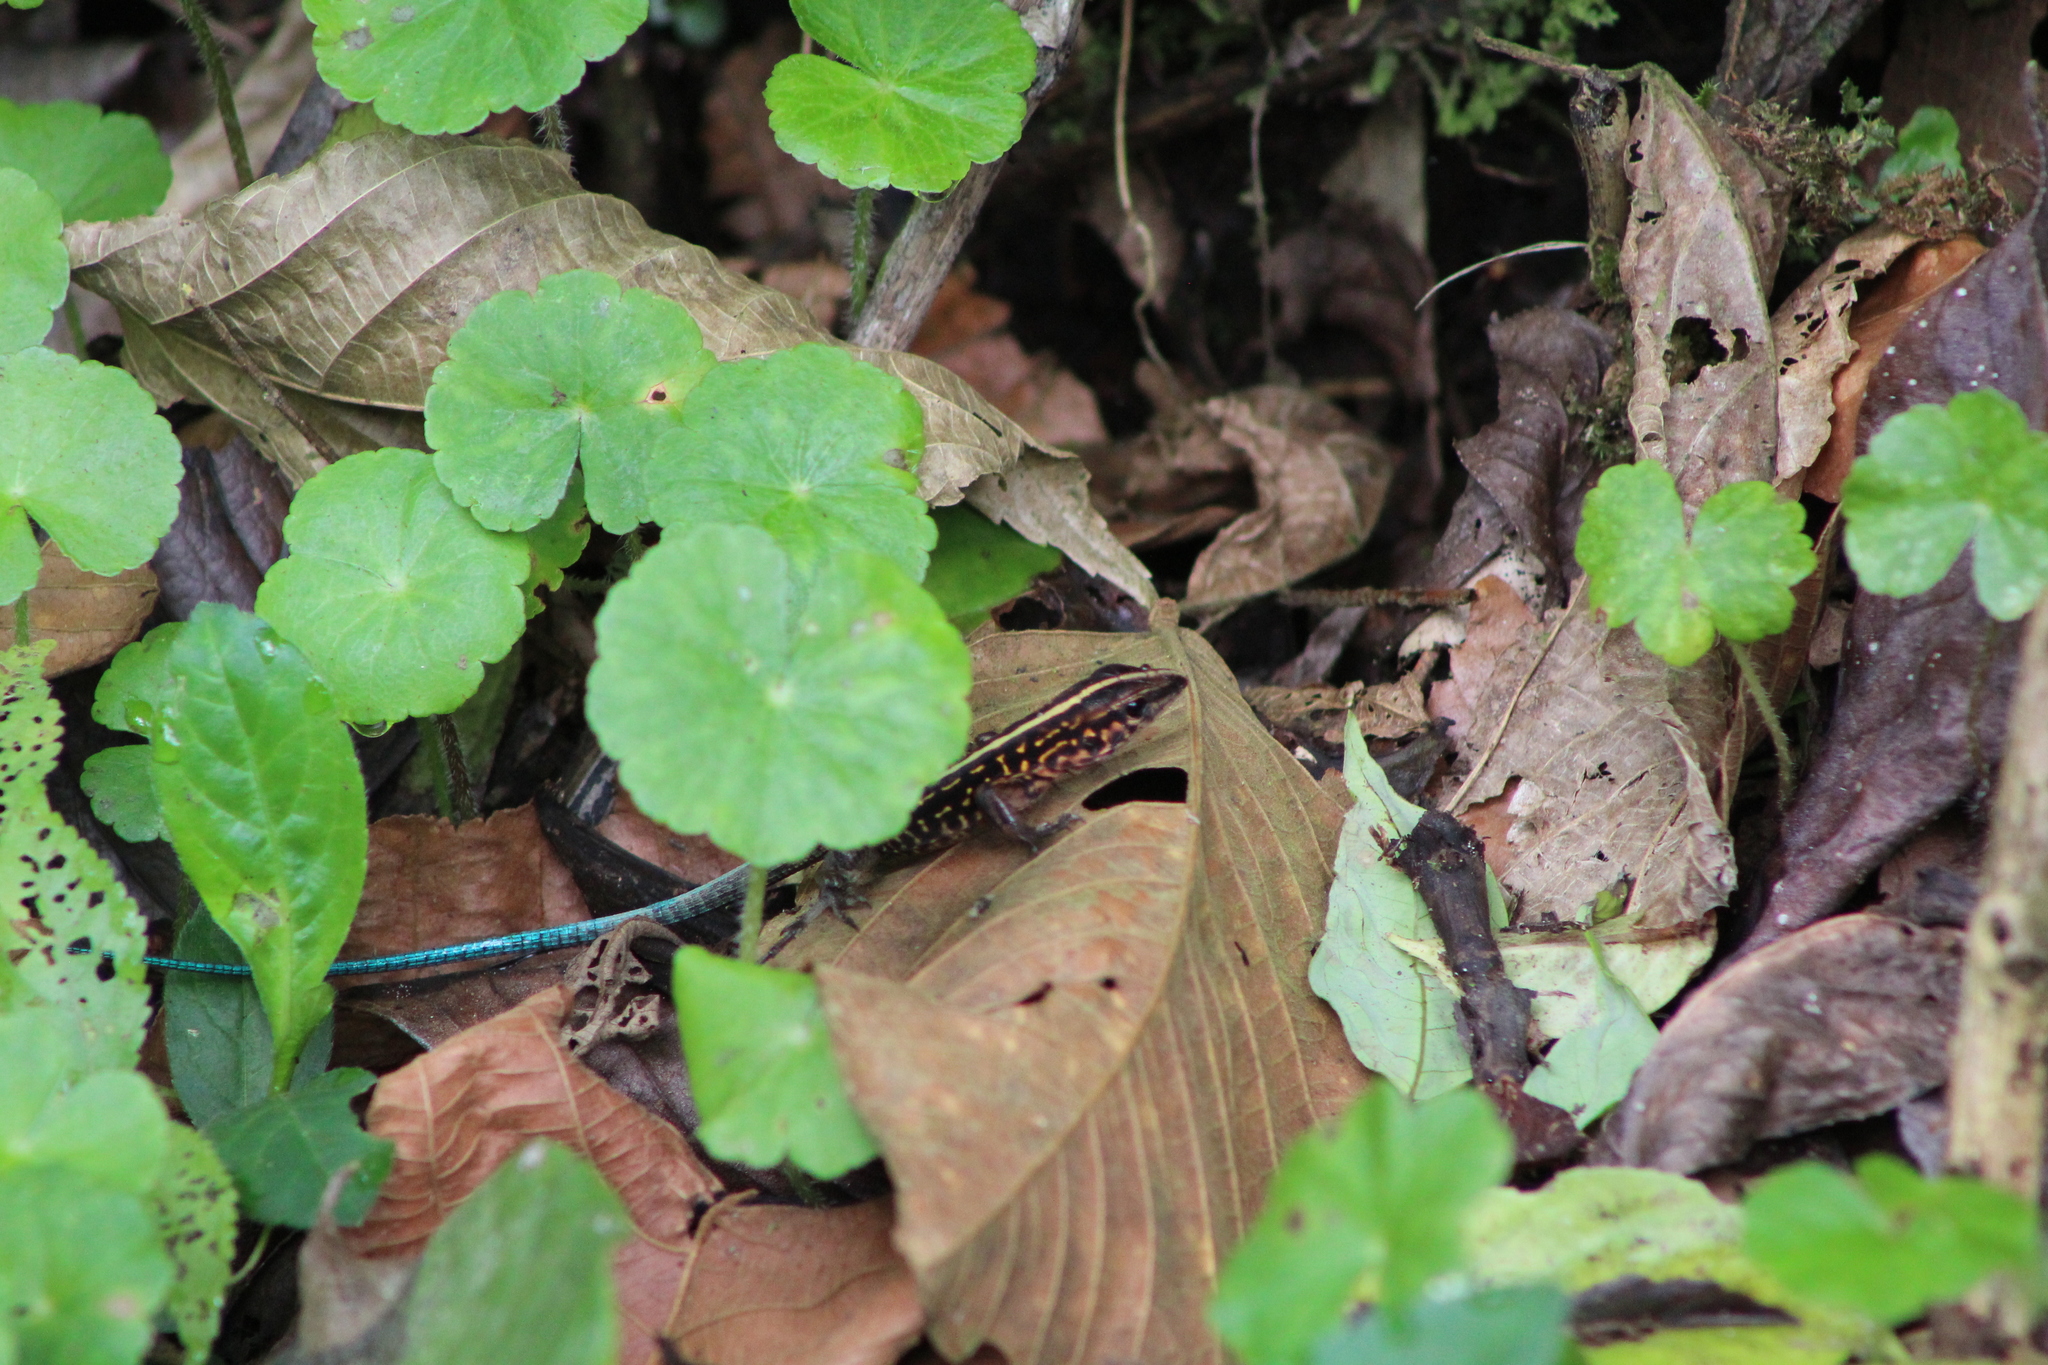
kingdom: Animalia
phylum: Chordata
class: Squamata
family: Teiidae
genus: Holcosus
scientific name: Holcosus festivus
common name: Middle american ameiva
